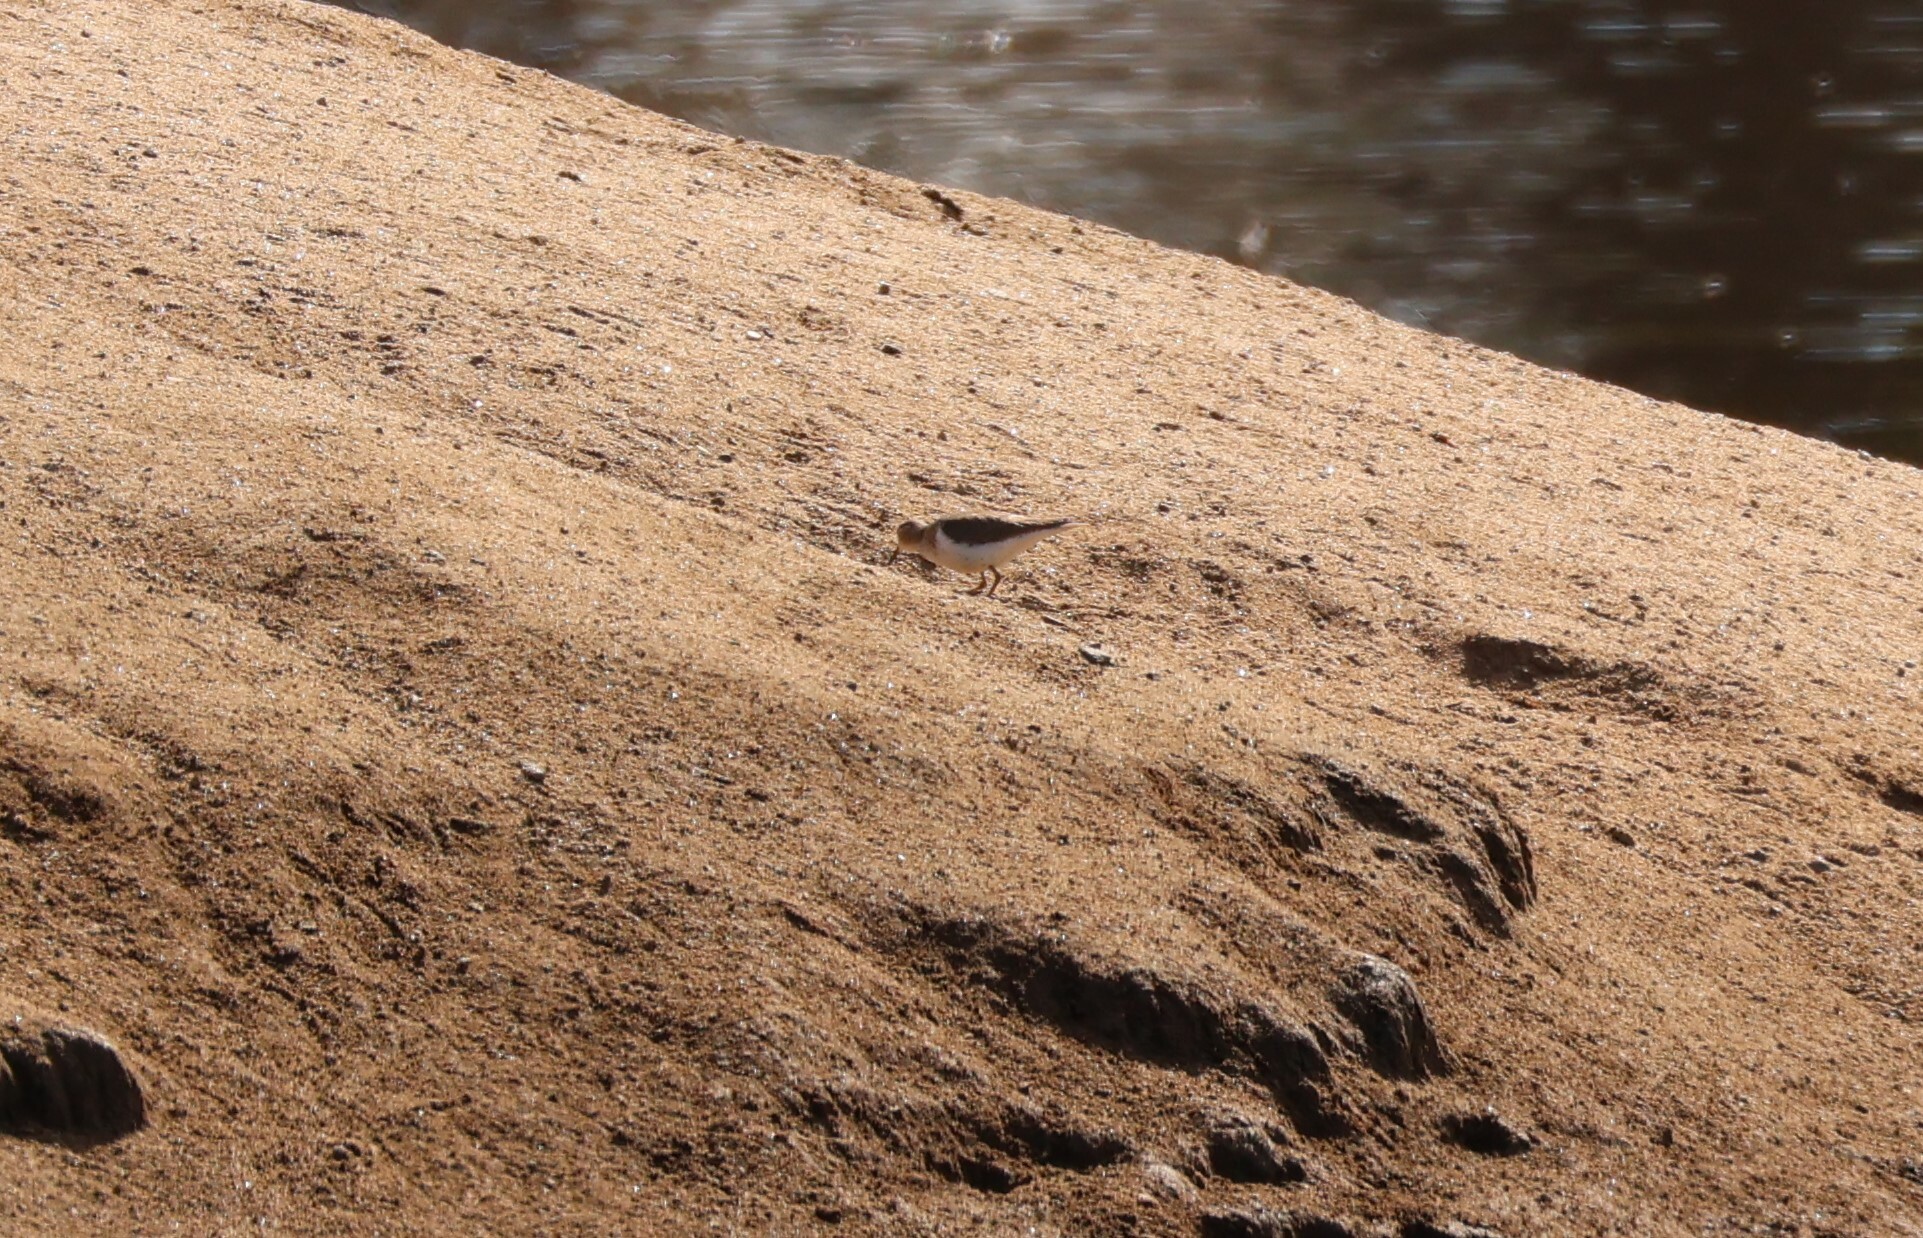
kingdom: Animalia
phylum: Chordata
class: Aves
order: Charadriiformes
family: Scolopacidae
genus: Actitis
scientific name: Actitis macularius
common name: Spotted sandpiper
